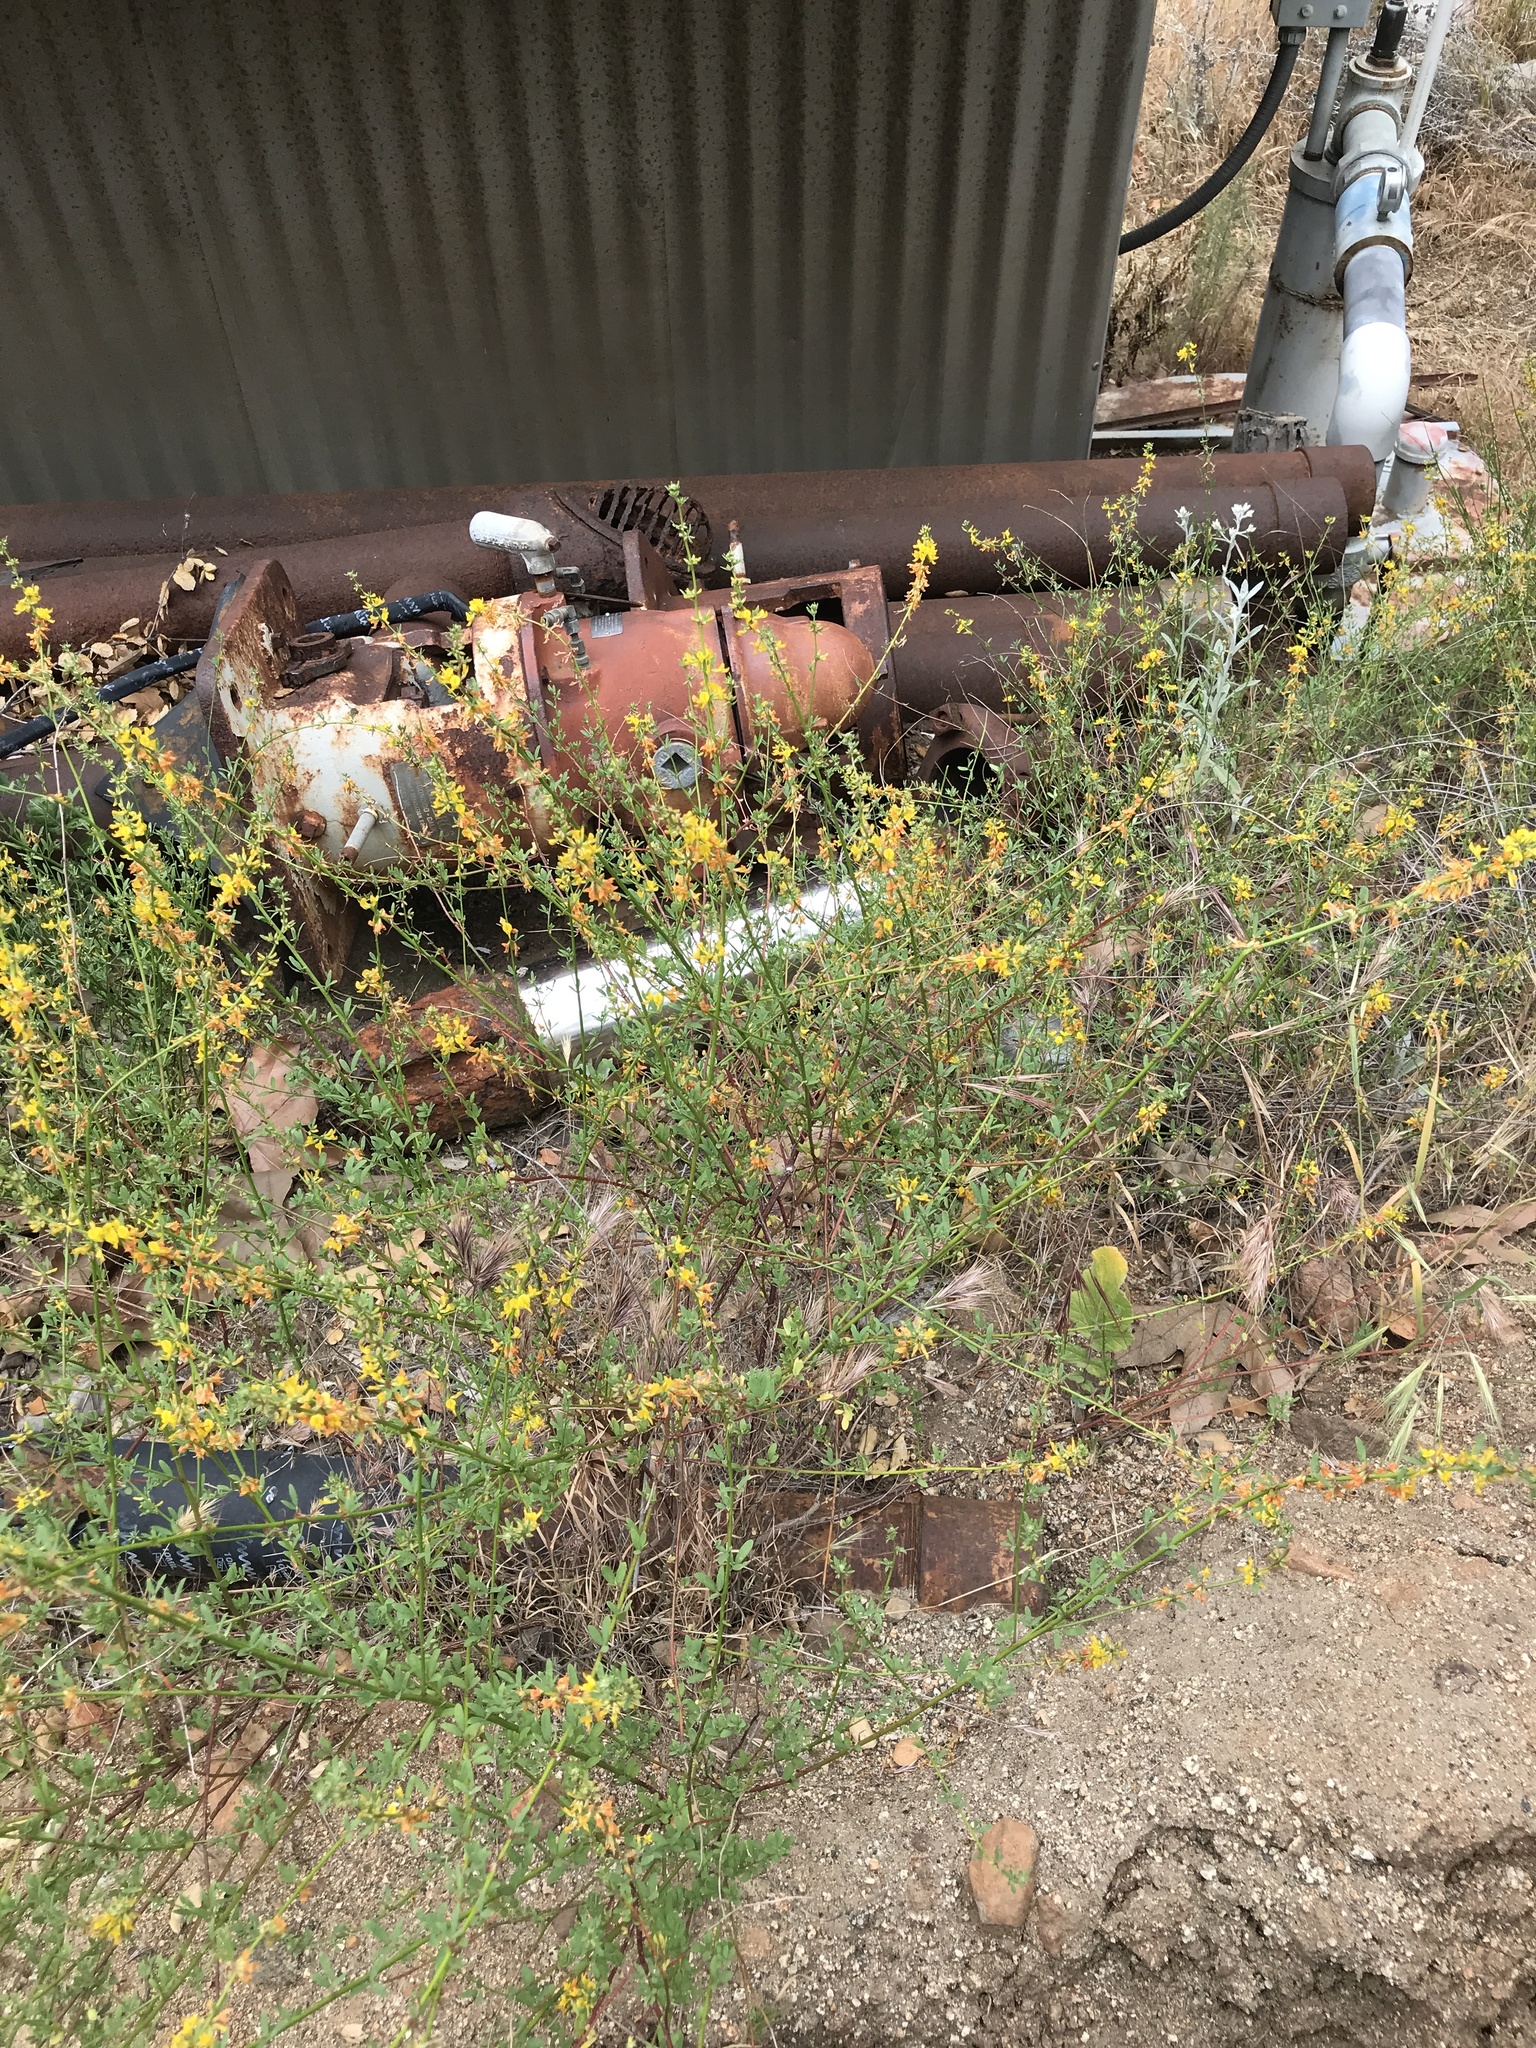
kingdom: Plantae
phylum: Tracheophyta
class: Magnoliopsida
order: Fabales
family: Fabaceae
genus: Acmispon
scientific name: Acmispon glaber
